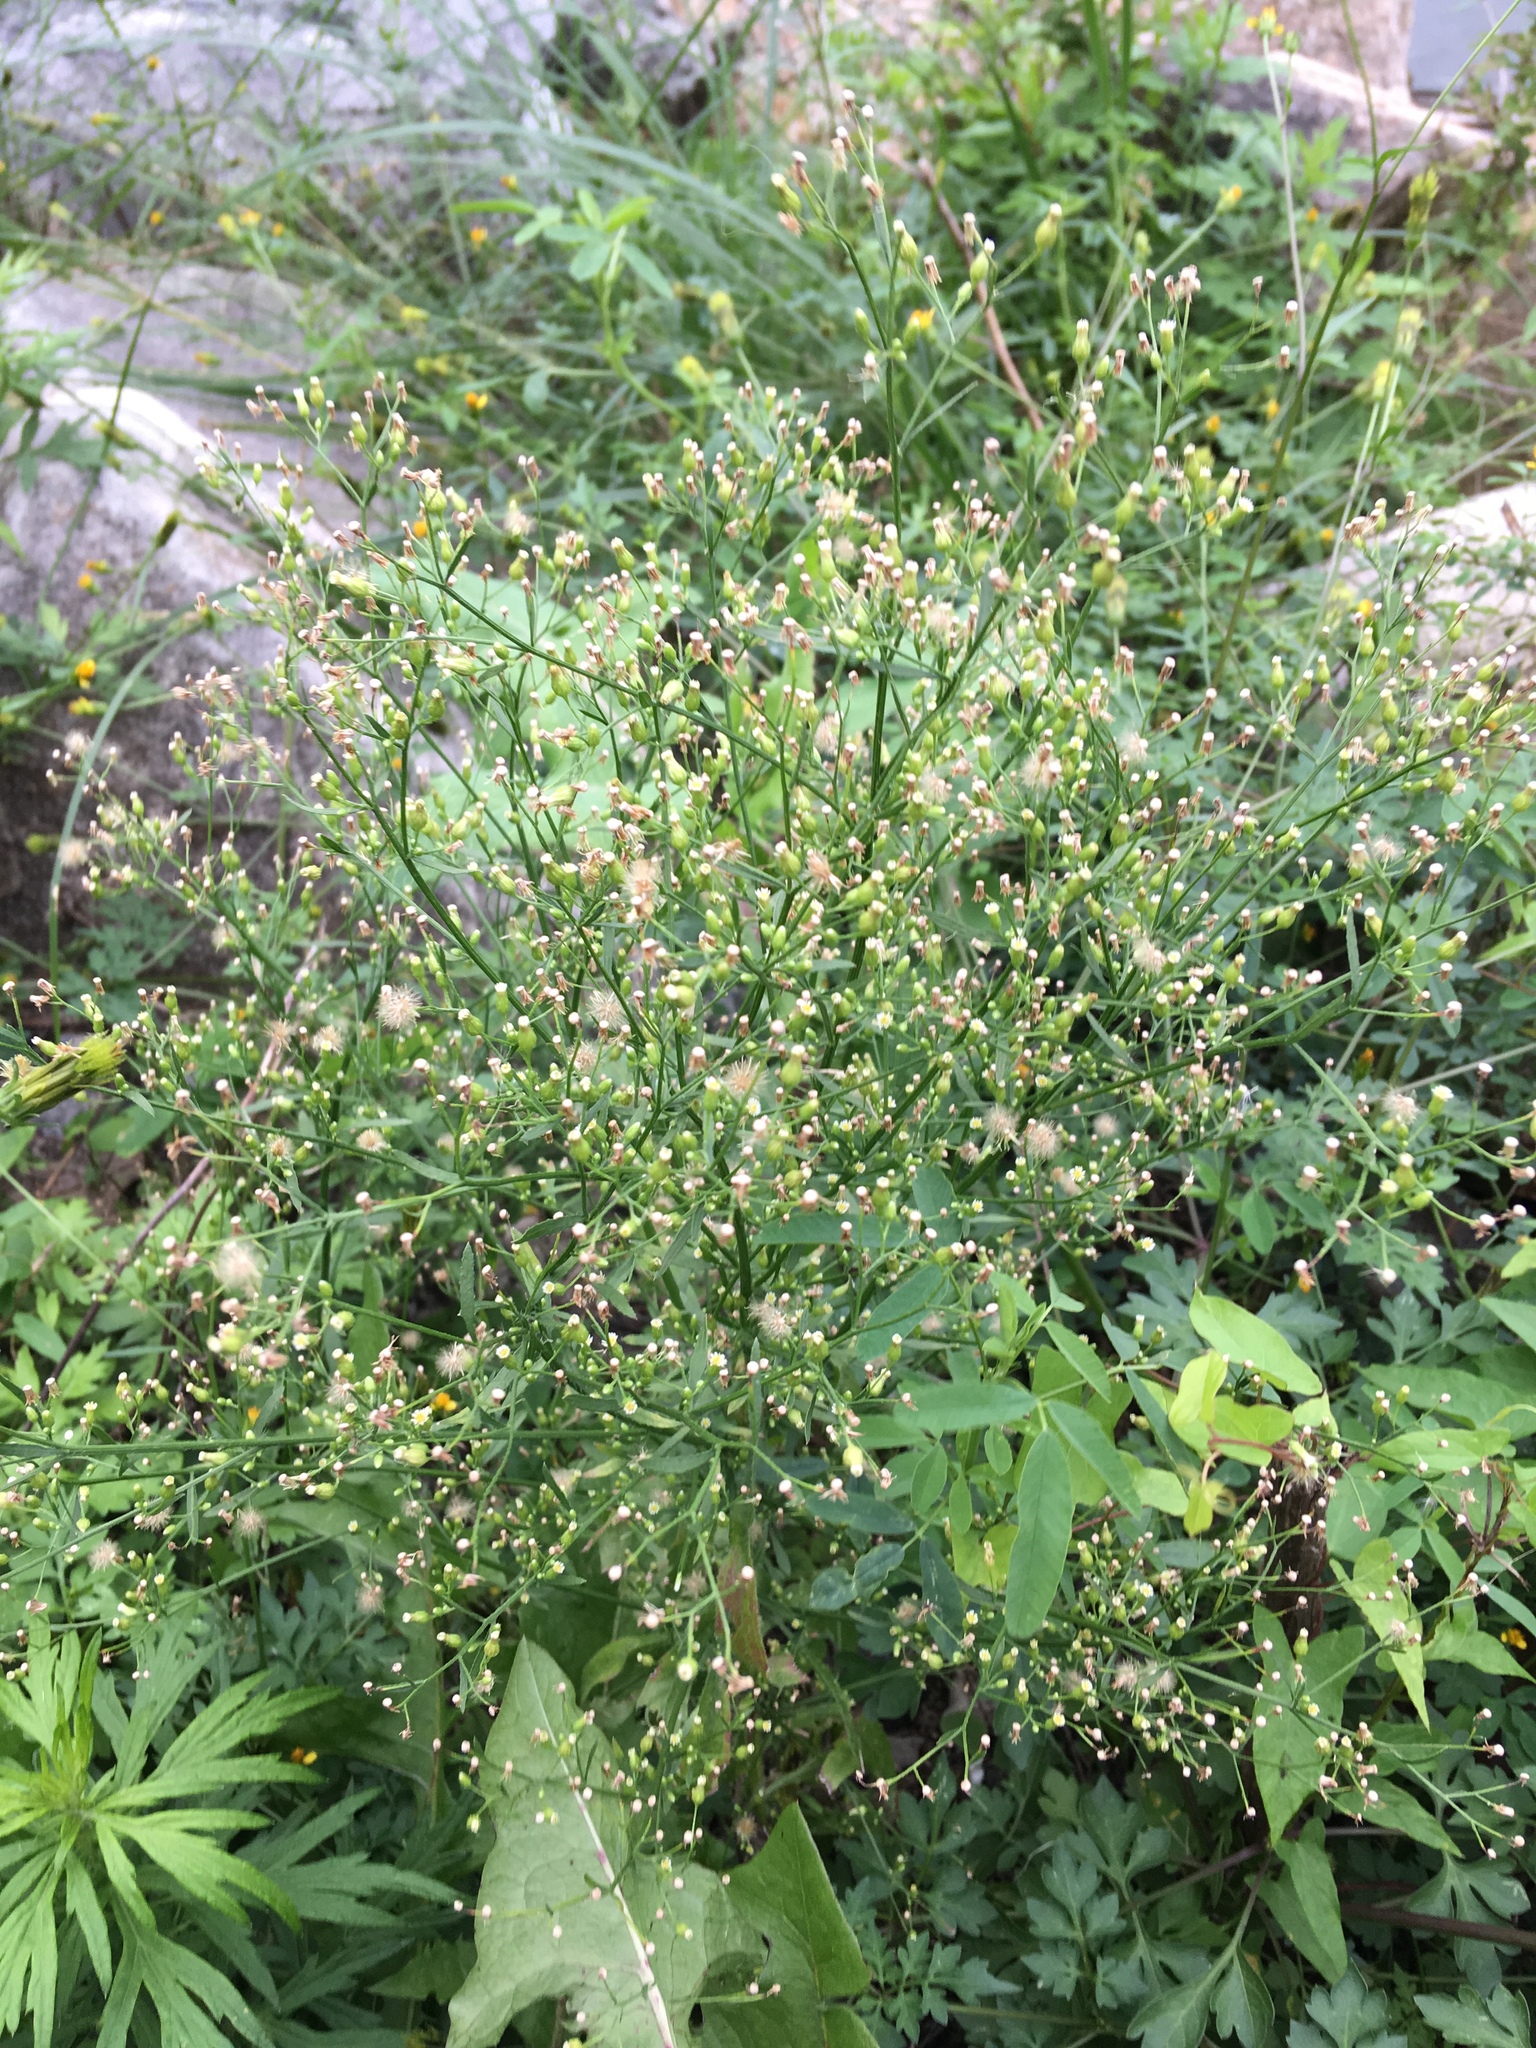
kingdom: Plantae
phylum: Tracheophyta
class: Magnoliopsida
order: Asterales
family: Asteraceae
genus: Erigeron
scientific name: Erigeron canadensis
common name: Canadian fleabane
